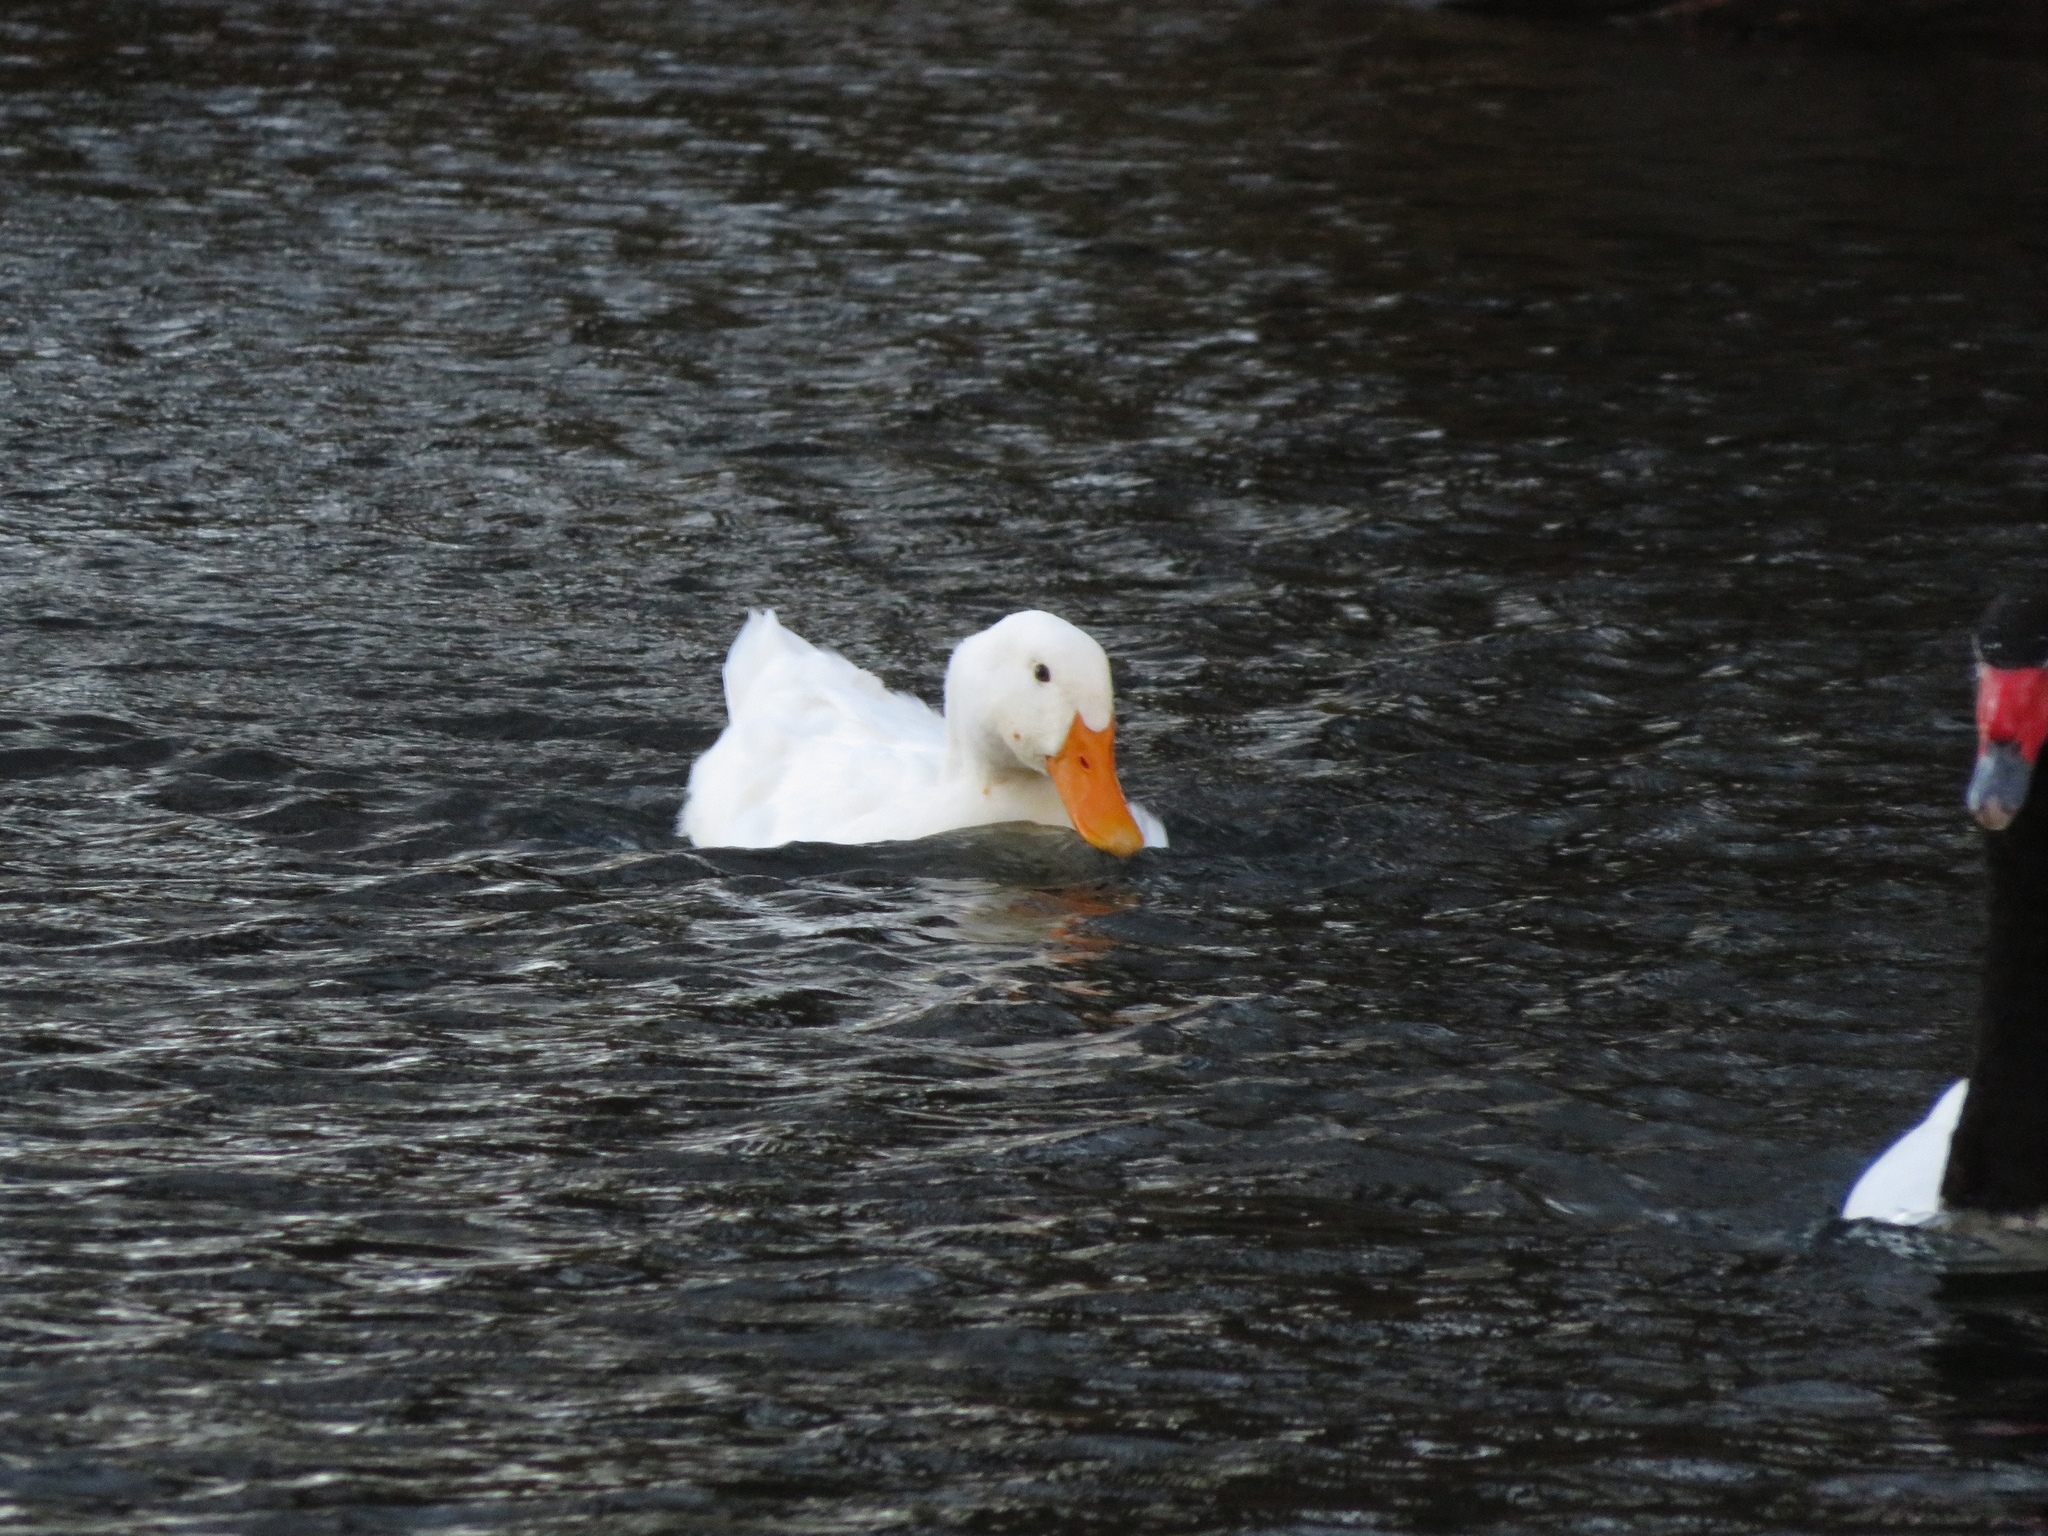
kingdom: Animalia
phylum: Chordata
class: Aves
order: Anseriformes
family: Anatidae
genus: Anas
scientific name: Anas platyrhynchos
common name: Mallard
